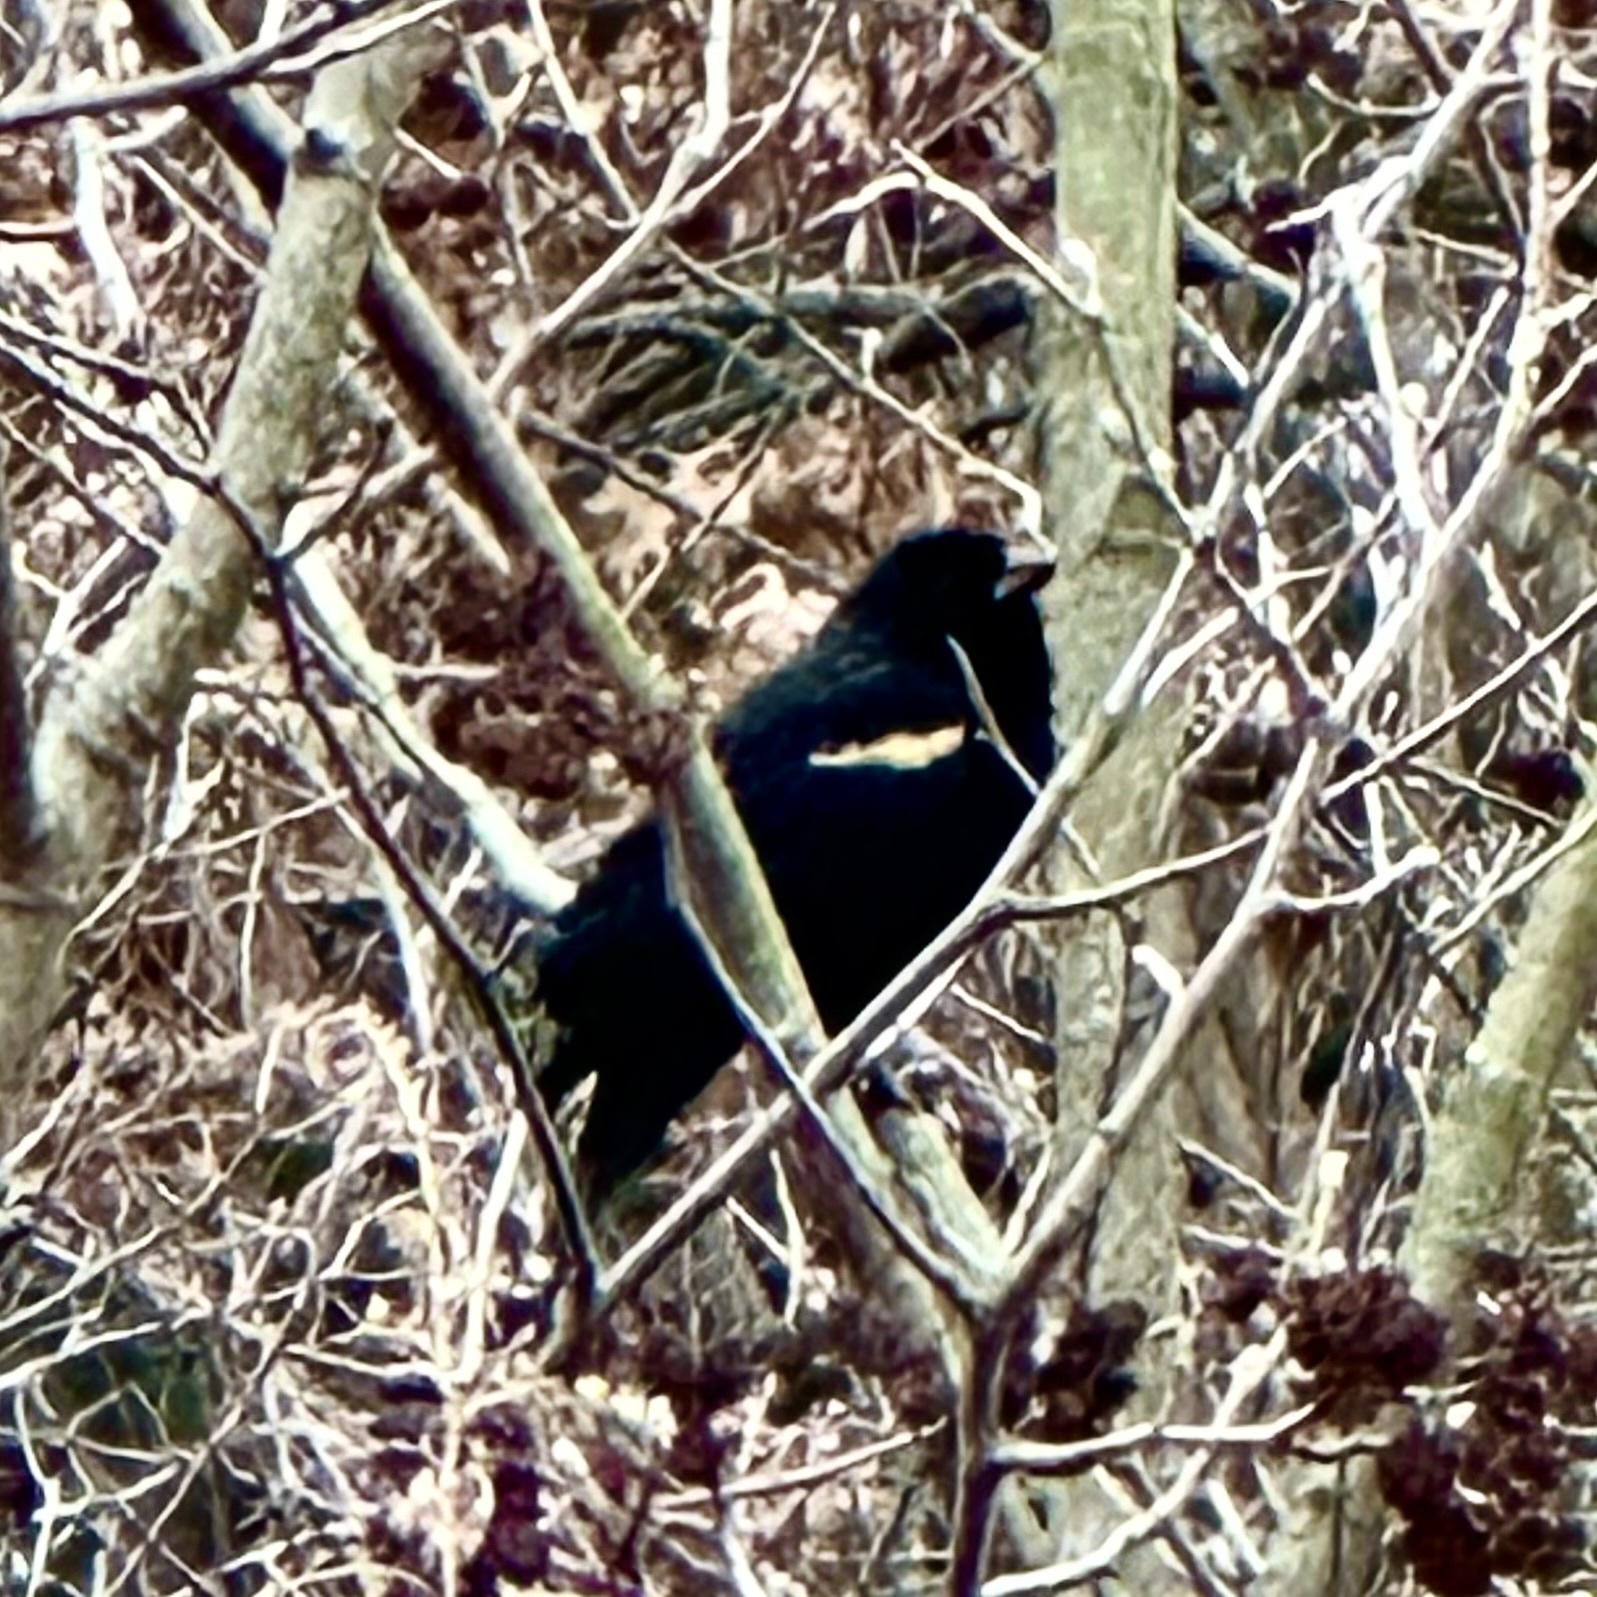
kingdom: Animalia
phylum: Chordata
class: Aves
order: Passeriformes
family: Icteridae
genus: Agelaius
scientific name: Agelaius phoeniceus
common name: Red-winged blackbird
